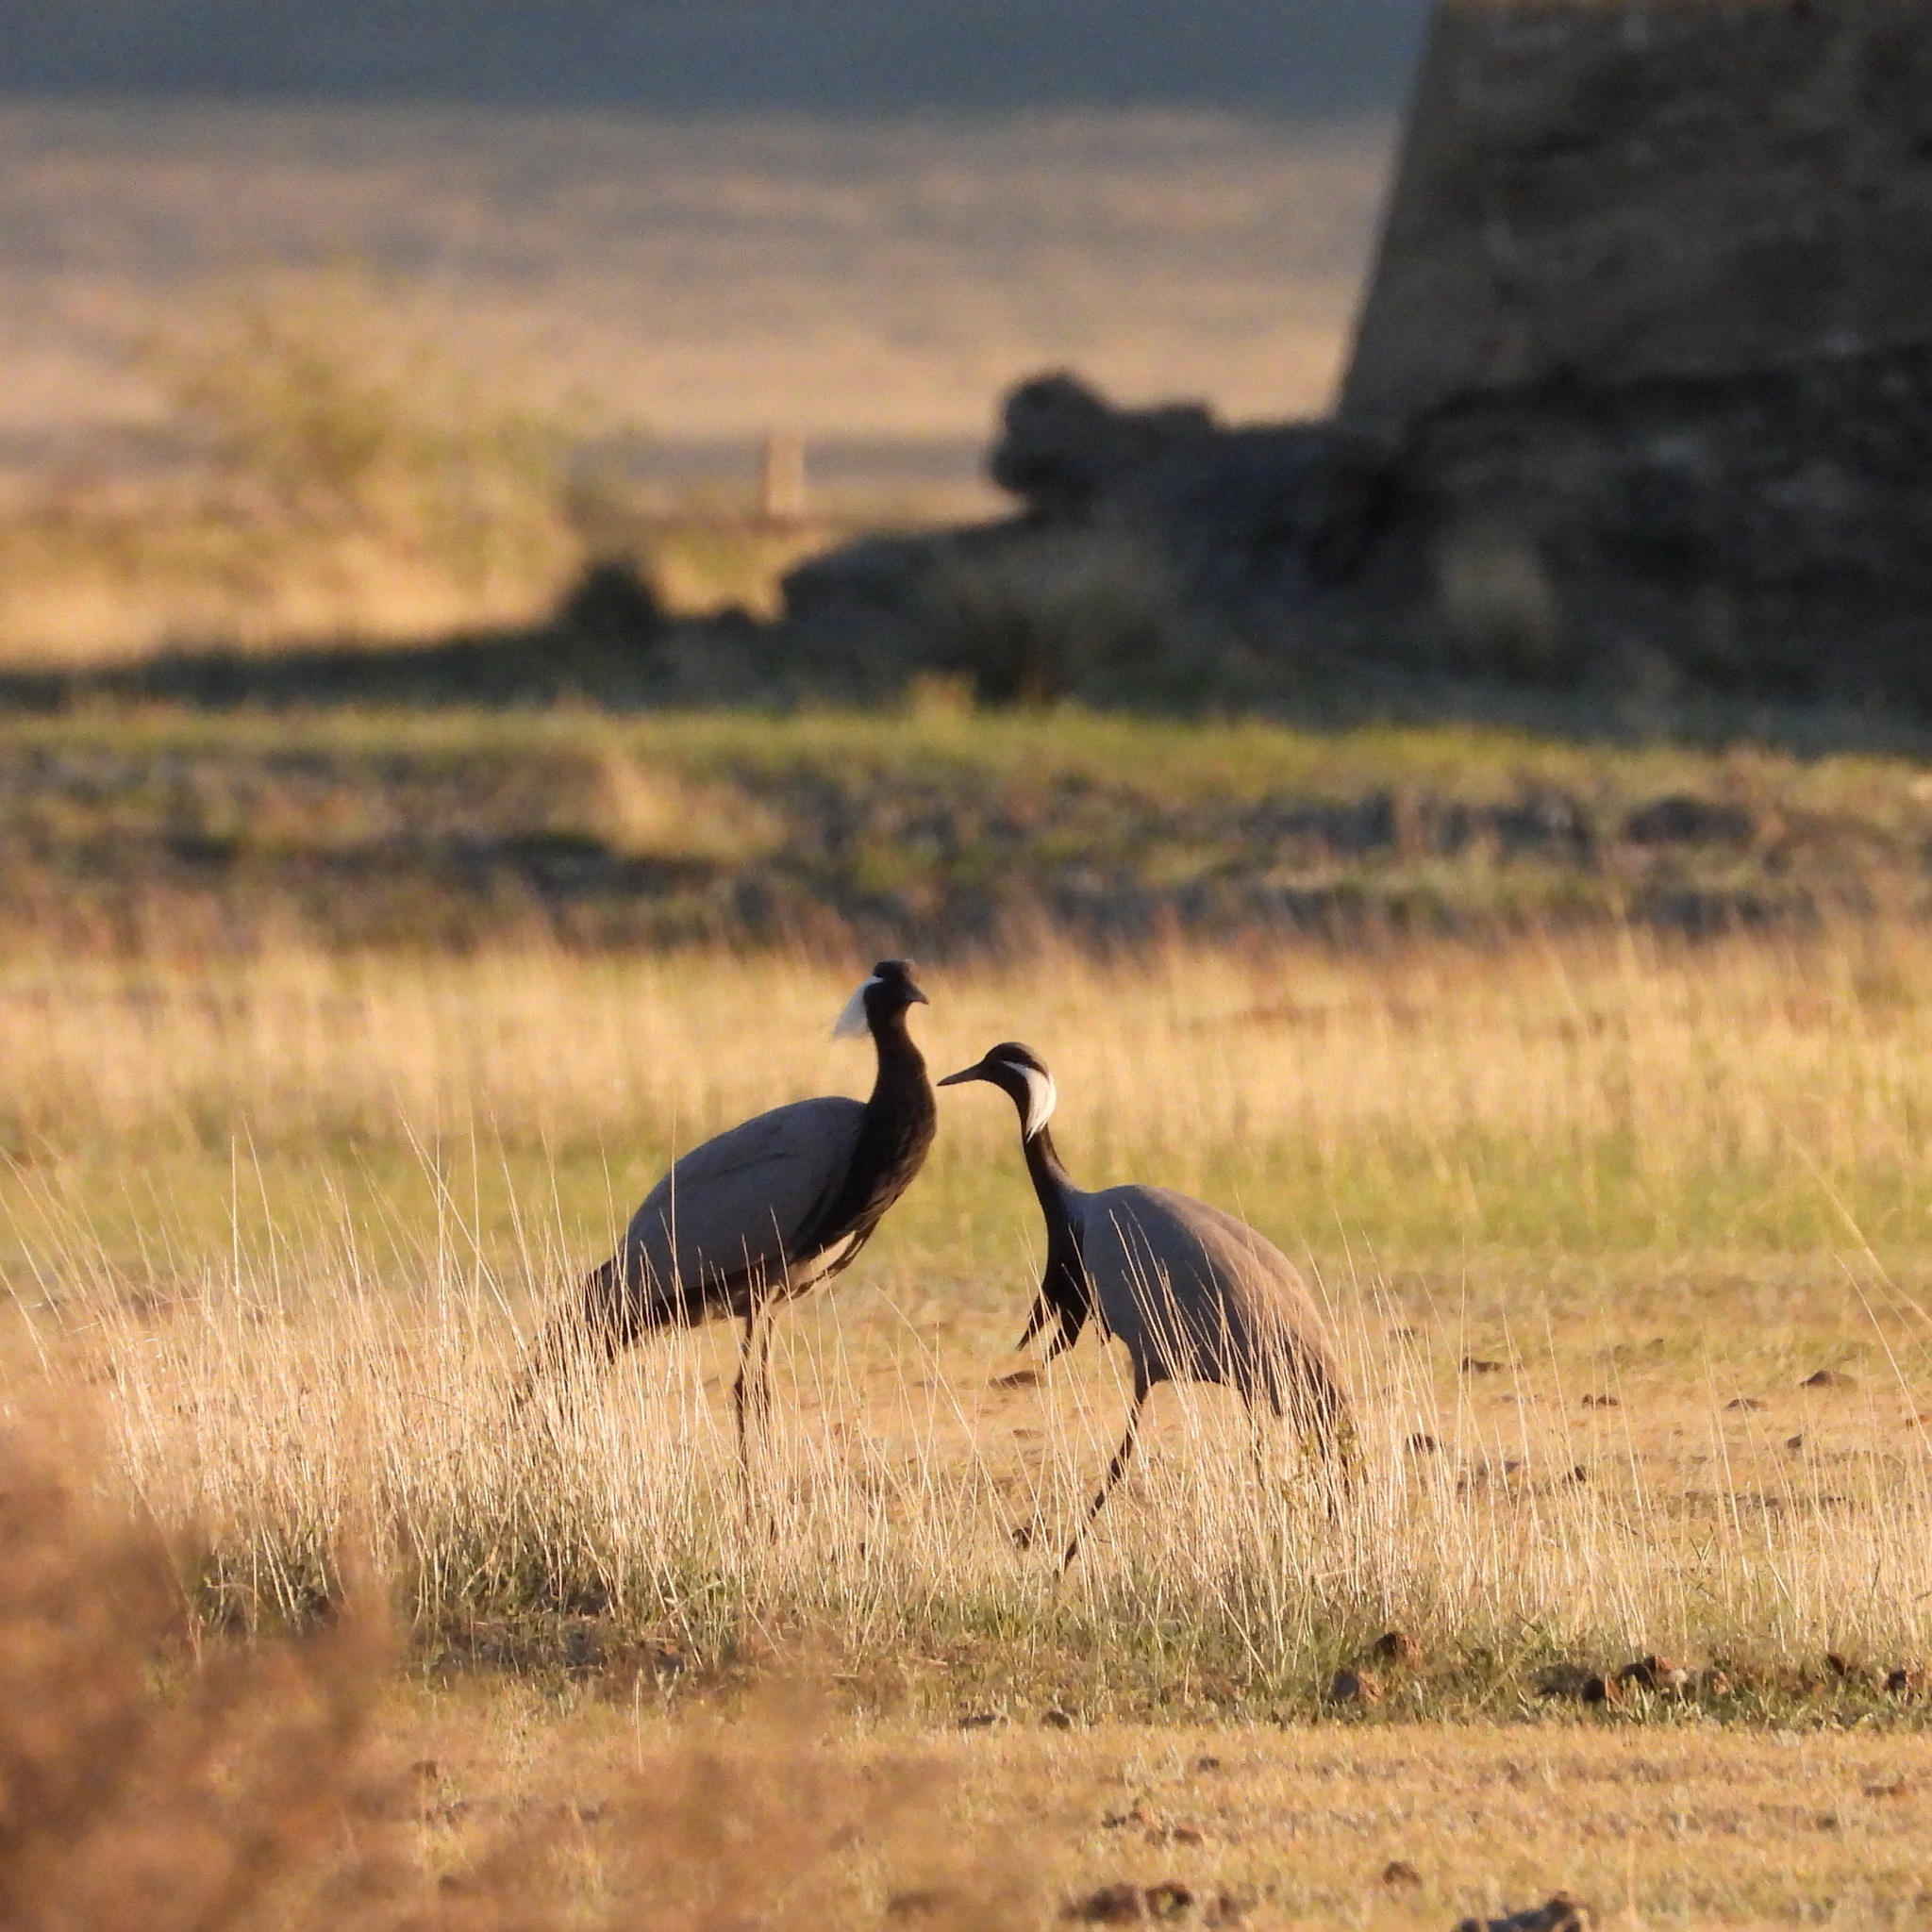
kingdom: Animalia
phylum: Chordata
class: Aves
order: Gruiformes
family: Gruidae
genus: Anthropoides
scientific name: Anthropoides virgo
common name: Demoiselle crane
